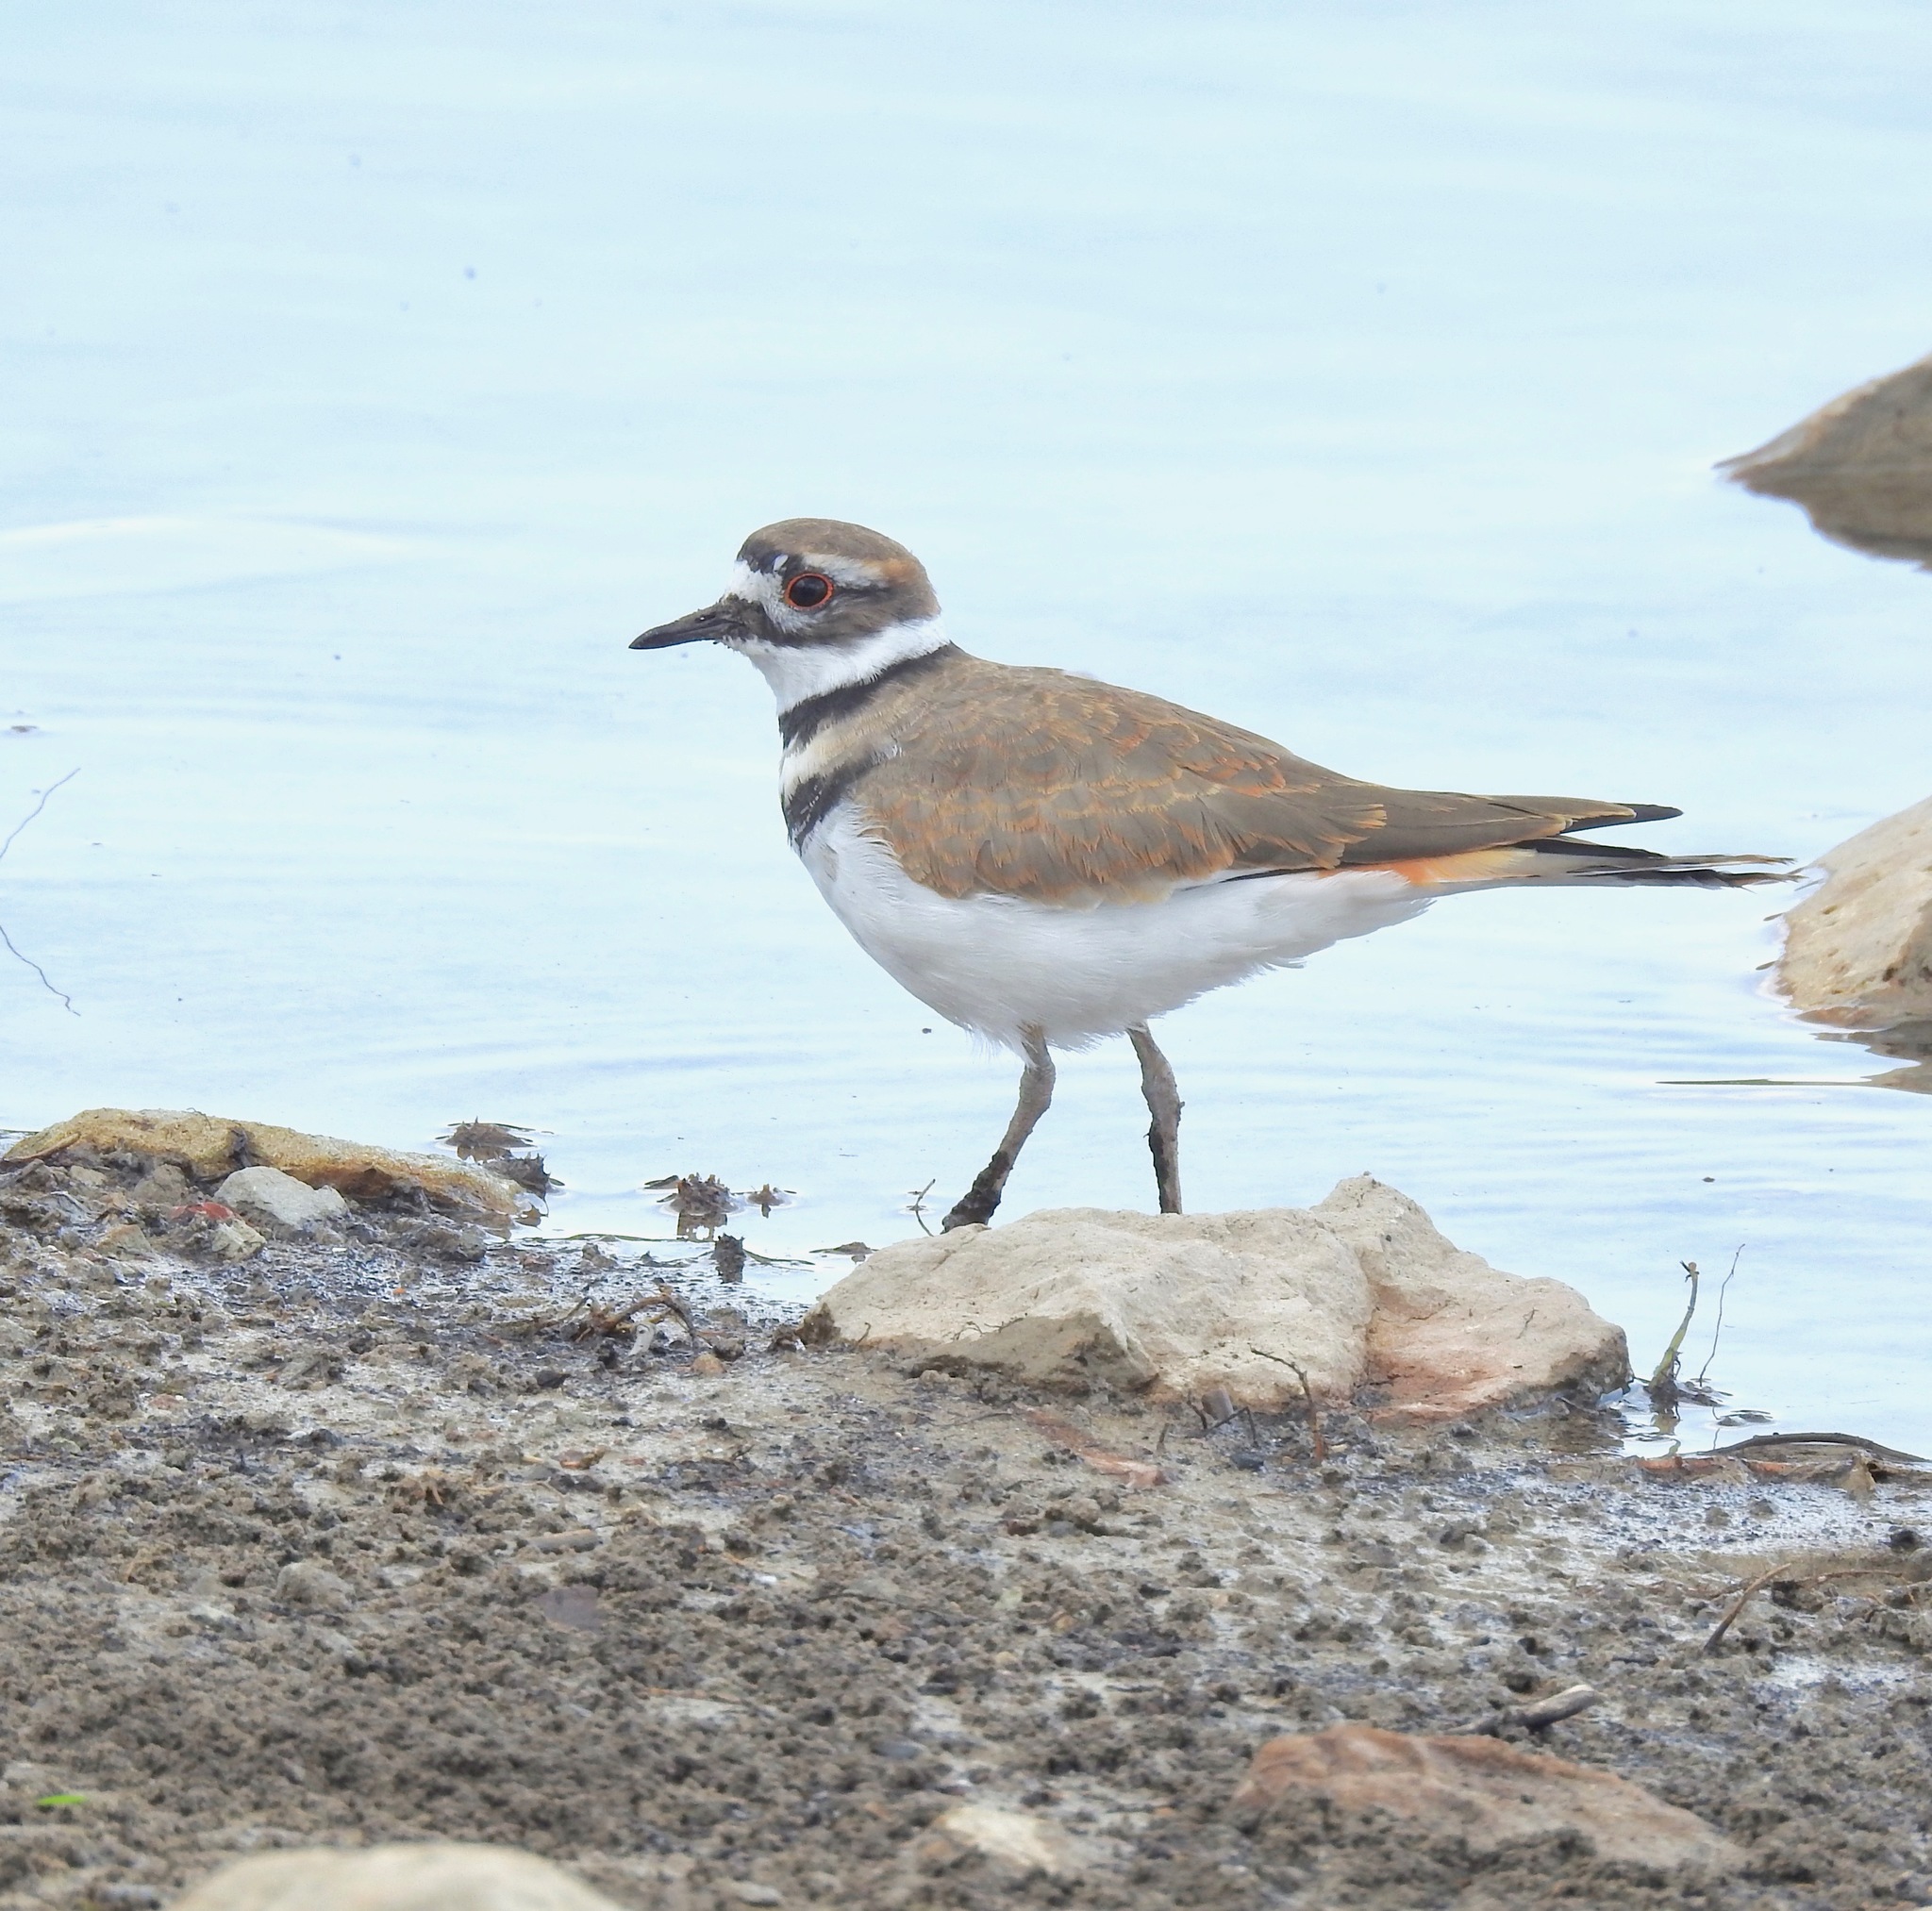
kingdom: Animalia
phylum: Chordata
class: Aves
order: Charadriiformes
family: Charadriidae
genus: Charadrius
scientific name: Charadrius vociferus
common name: Killdeer
